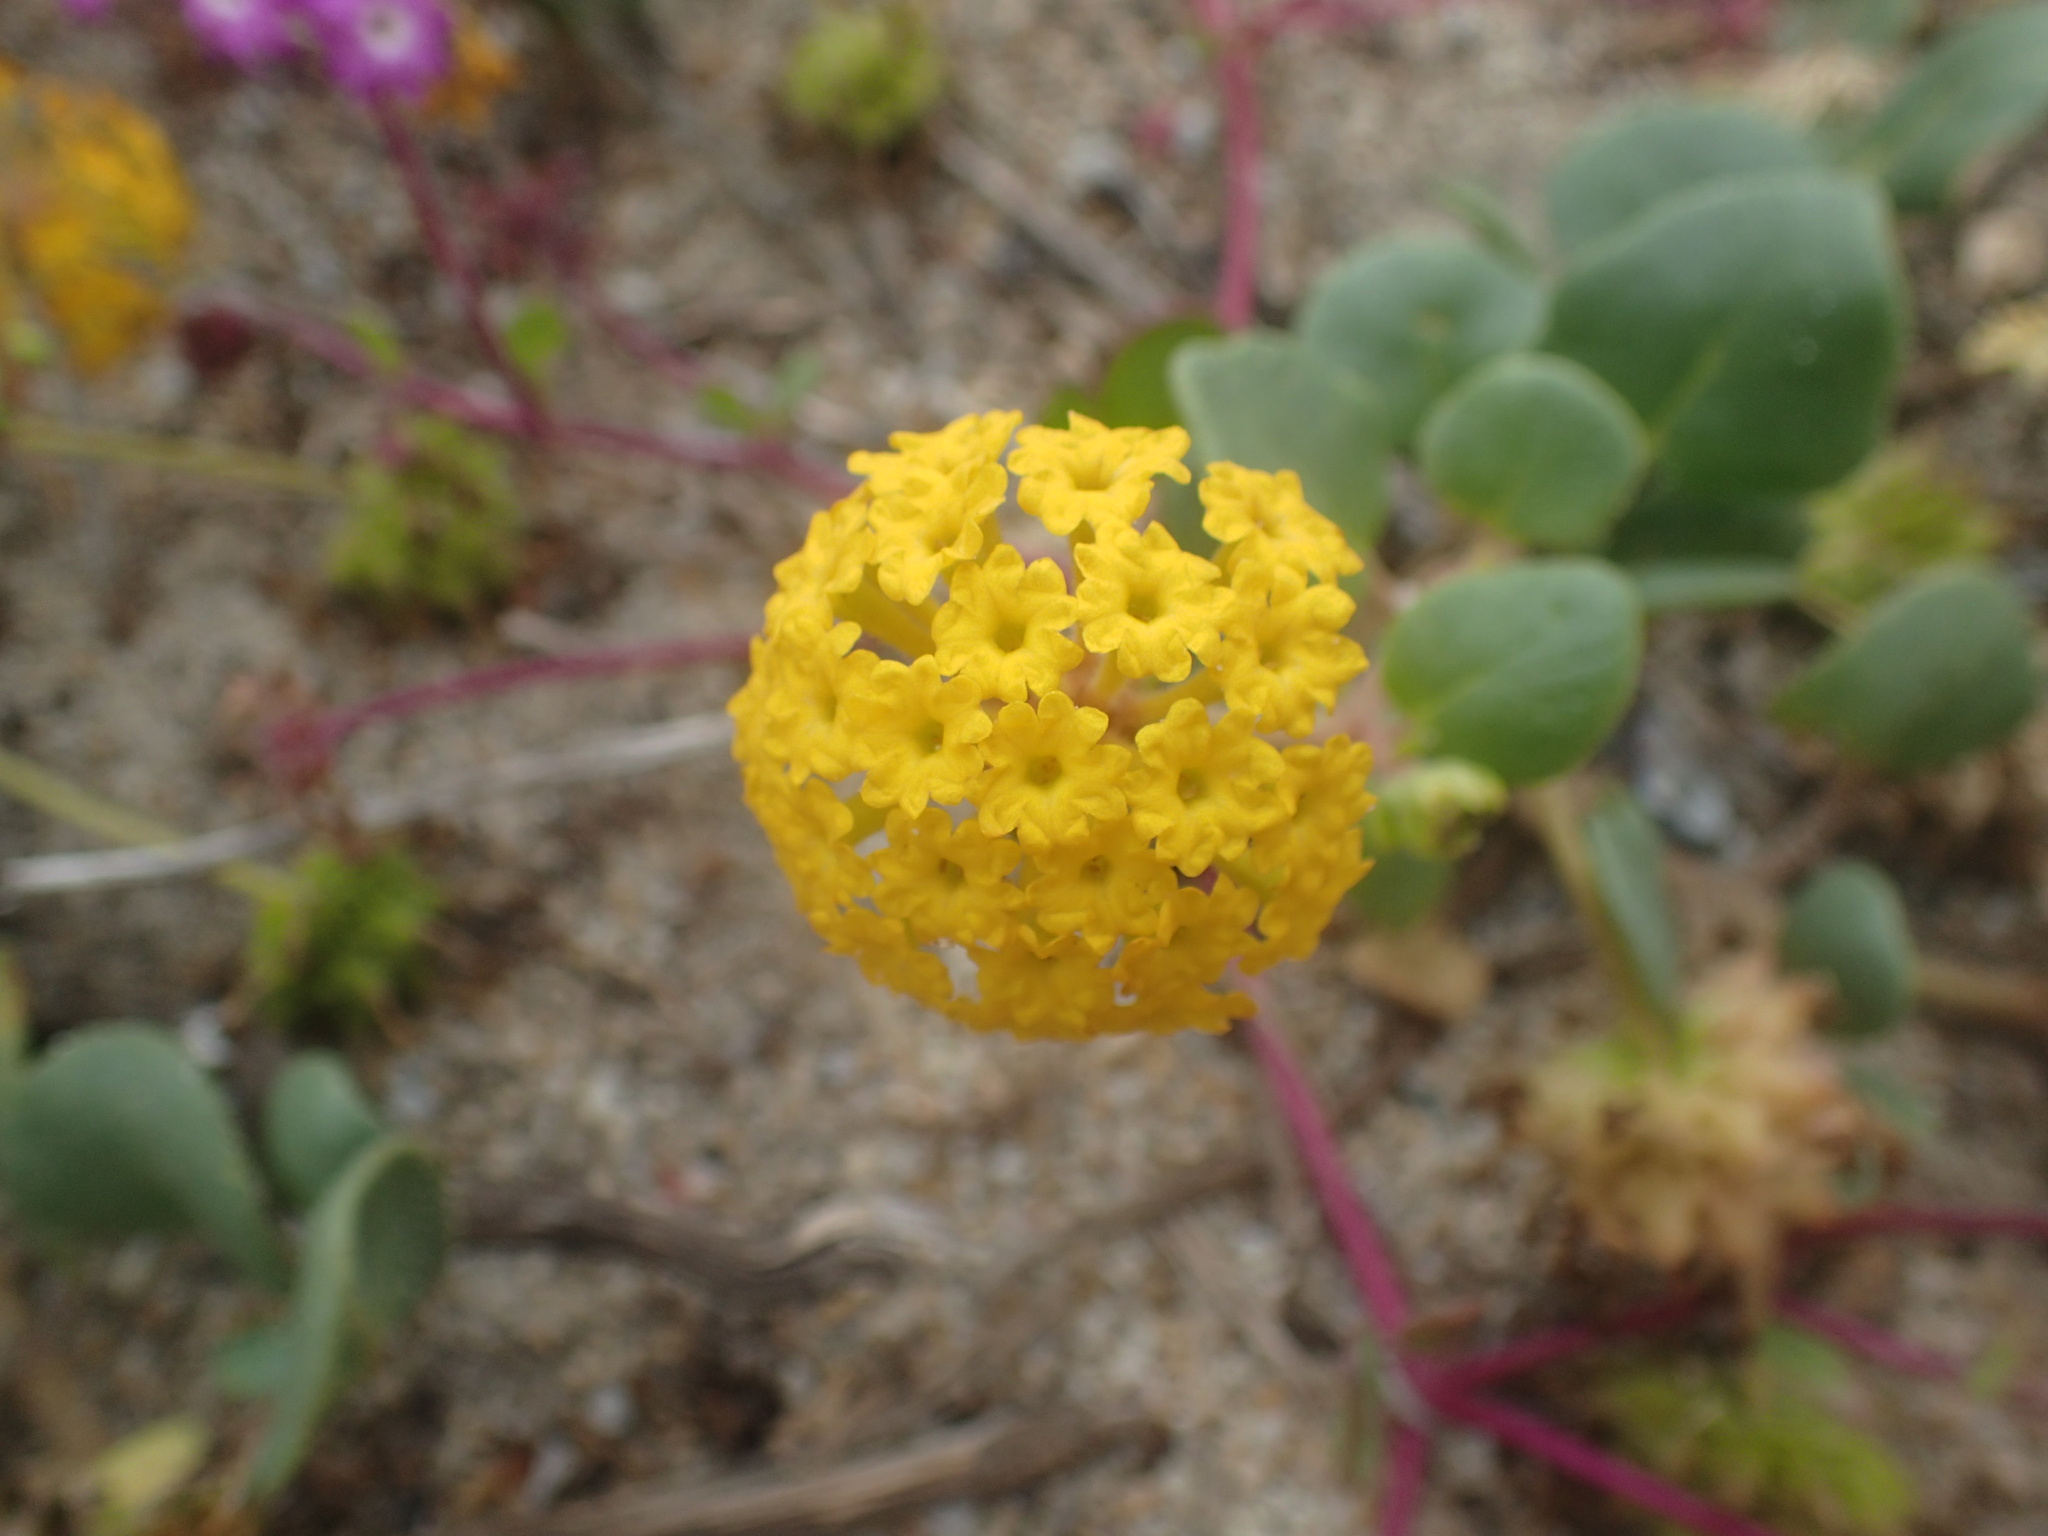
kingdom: Plantae
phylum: Tracheophyta
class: Magnoliopsida
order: Caryophyllales
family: Nyctaginaceae
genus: Abronia
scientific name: Abronia latifolia
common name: Yellow sand-verbena
